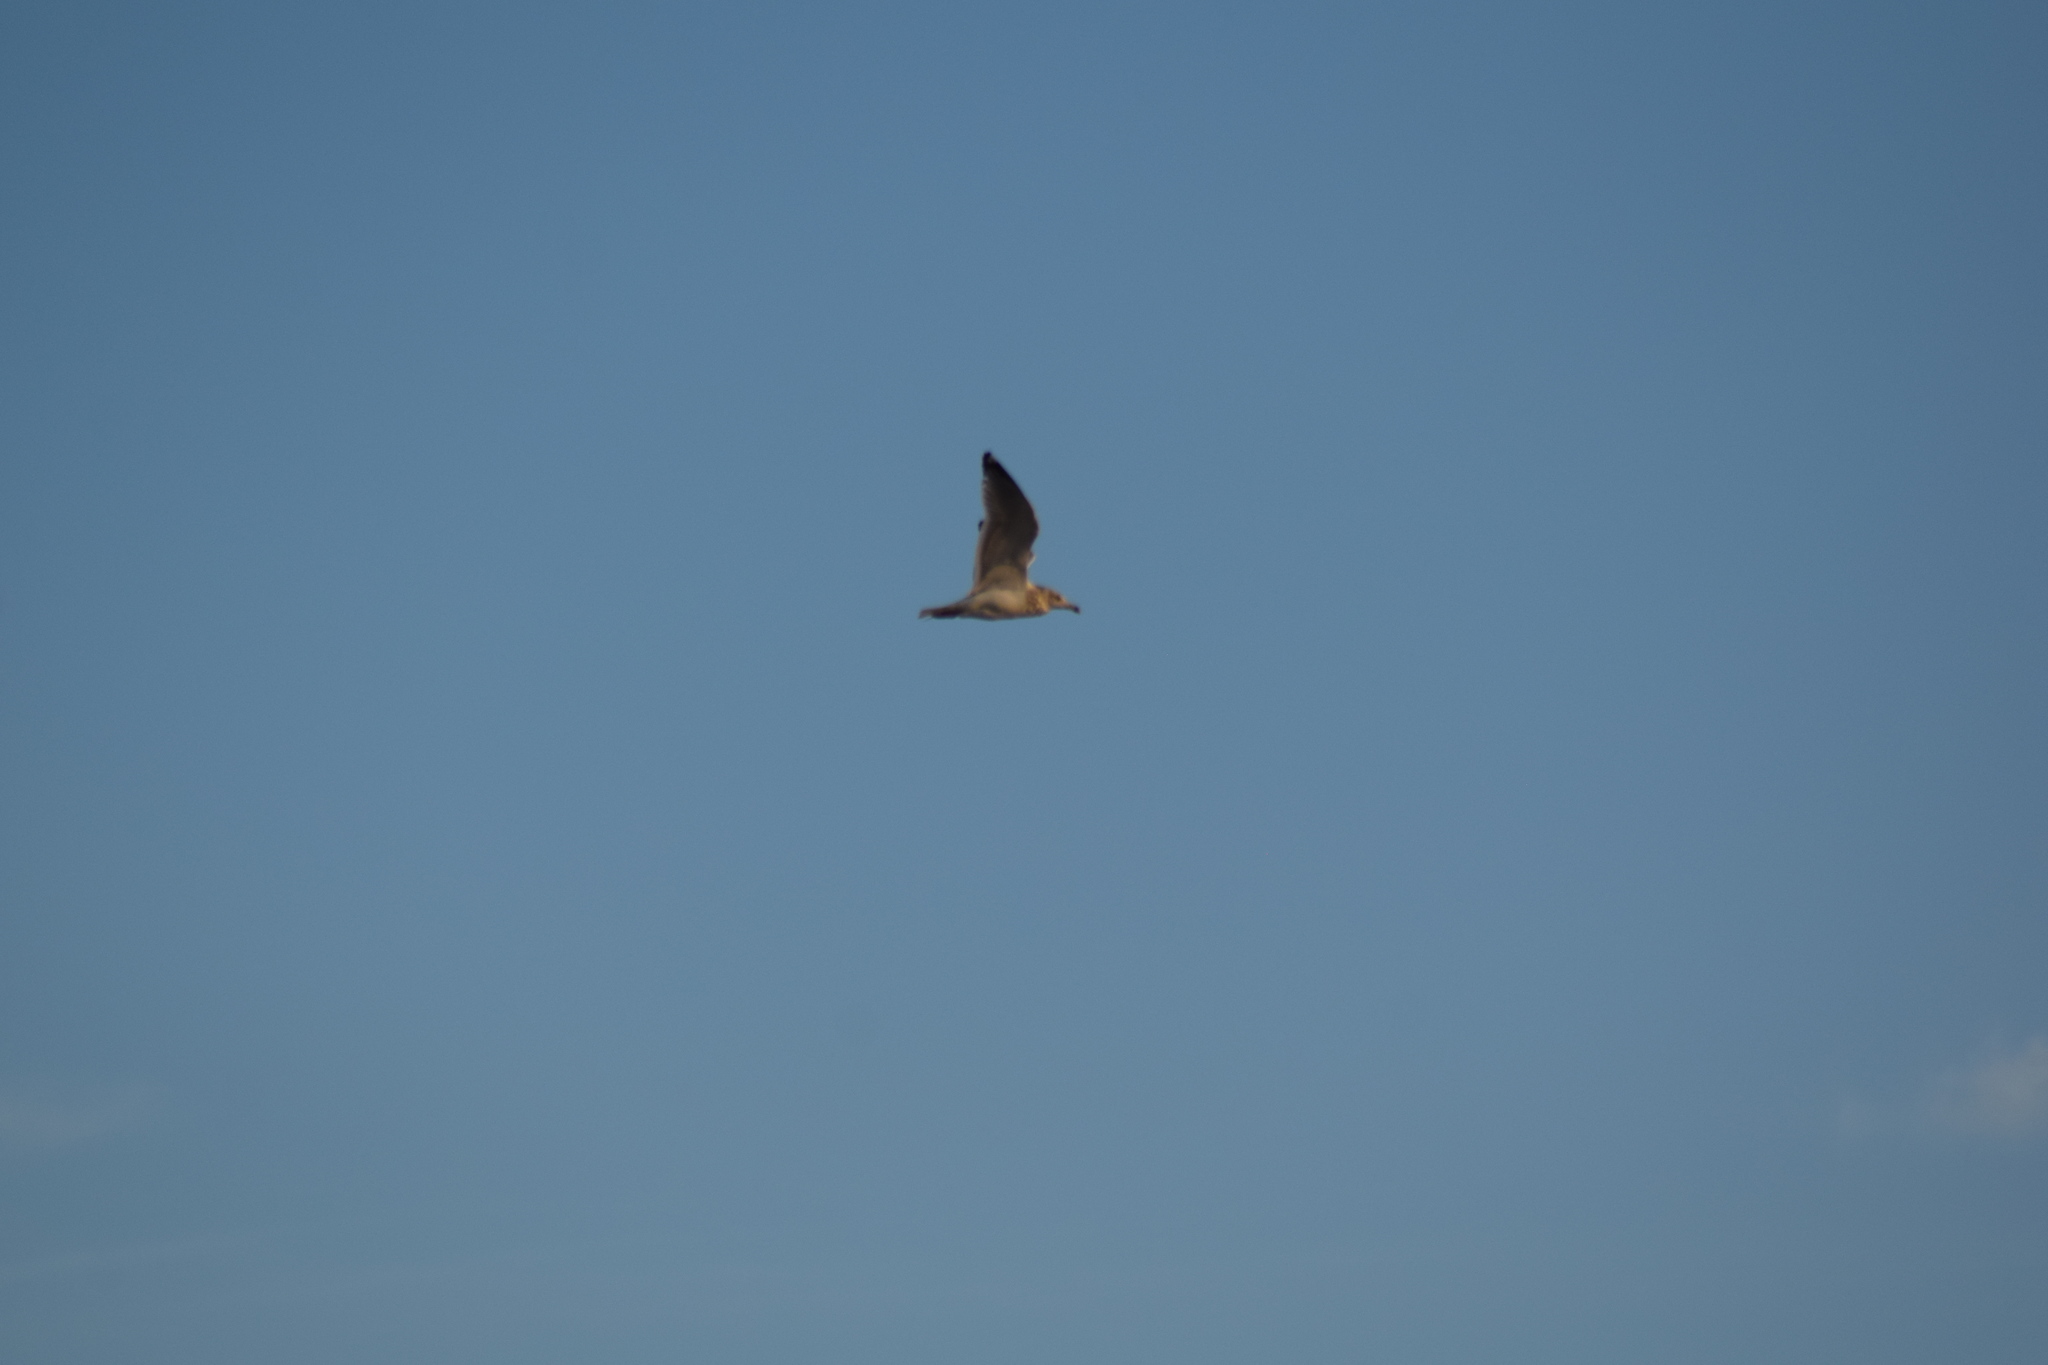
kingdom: Animalia
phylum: Chordata
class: Aves
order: Charadriiformes
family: Laridae
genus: Larus
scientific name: Larus argentatus
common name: Herring gull
